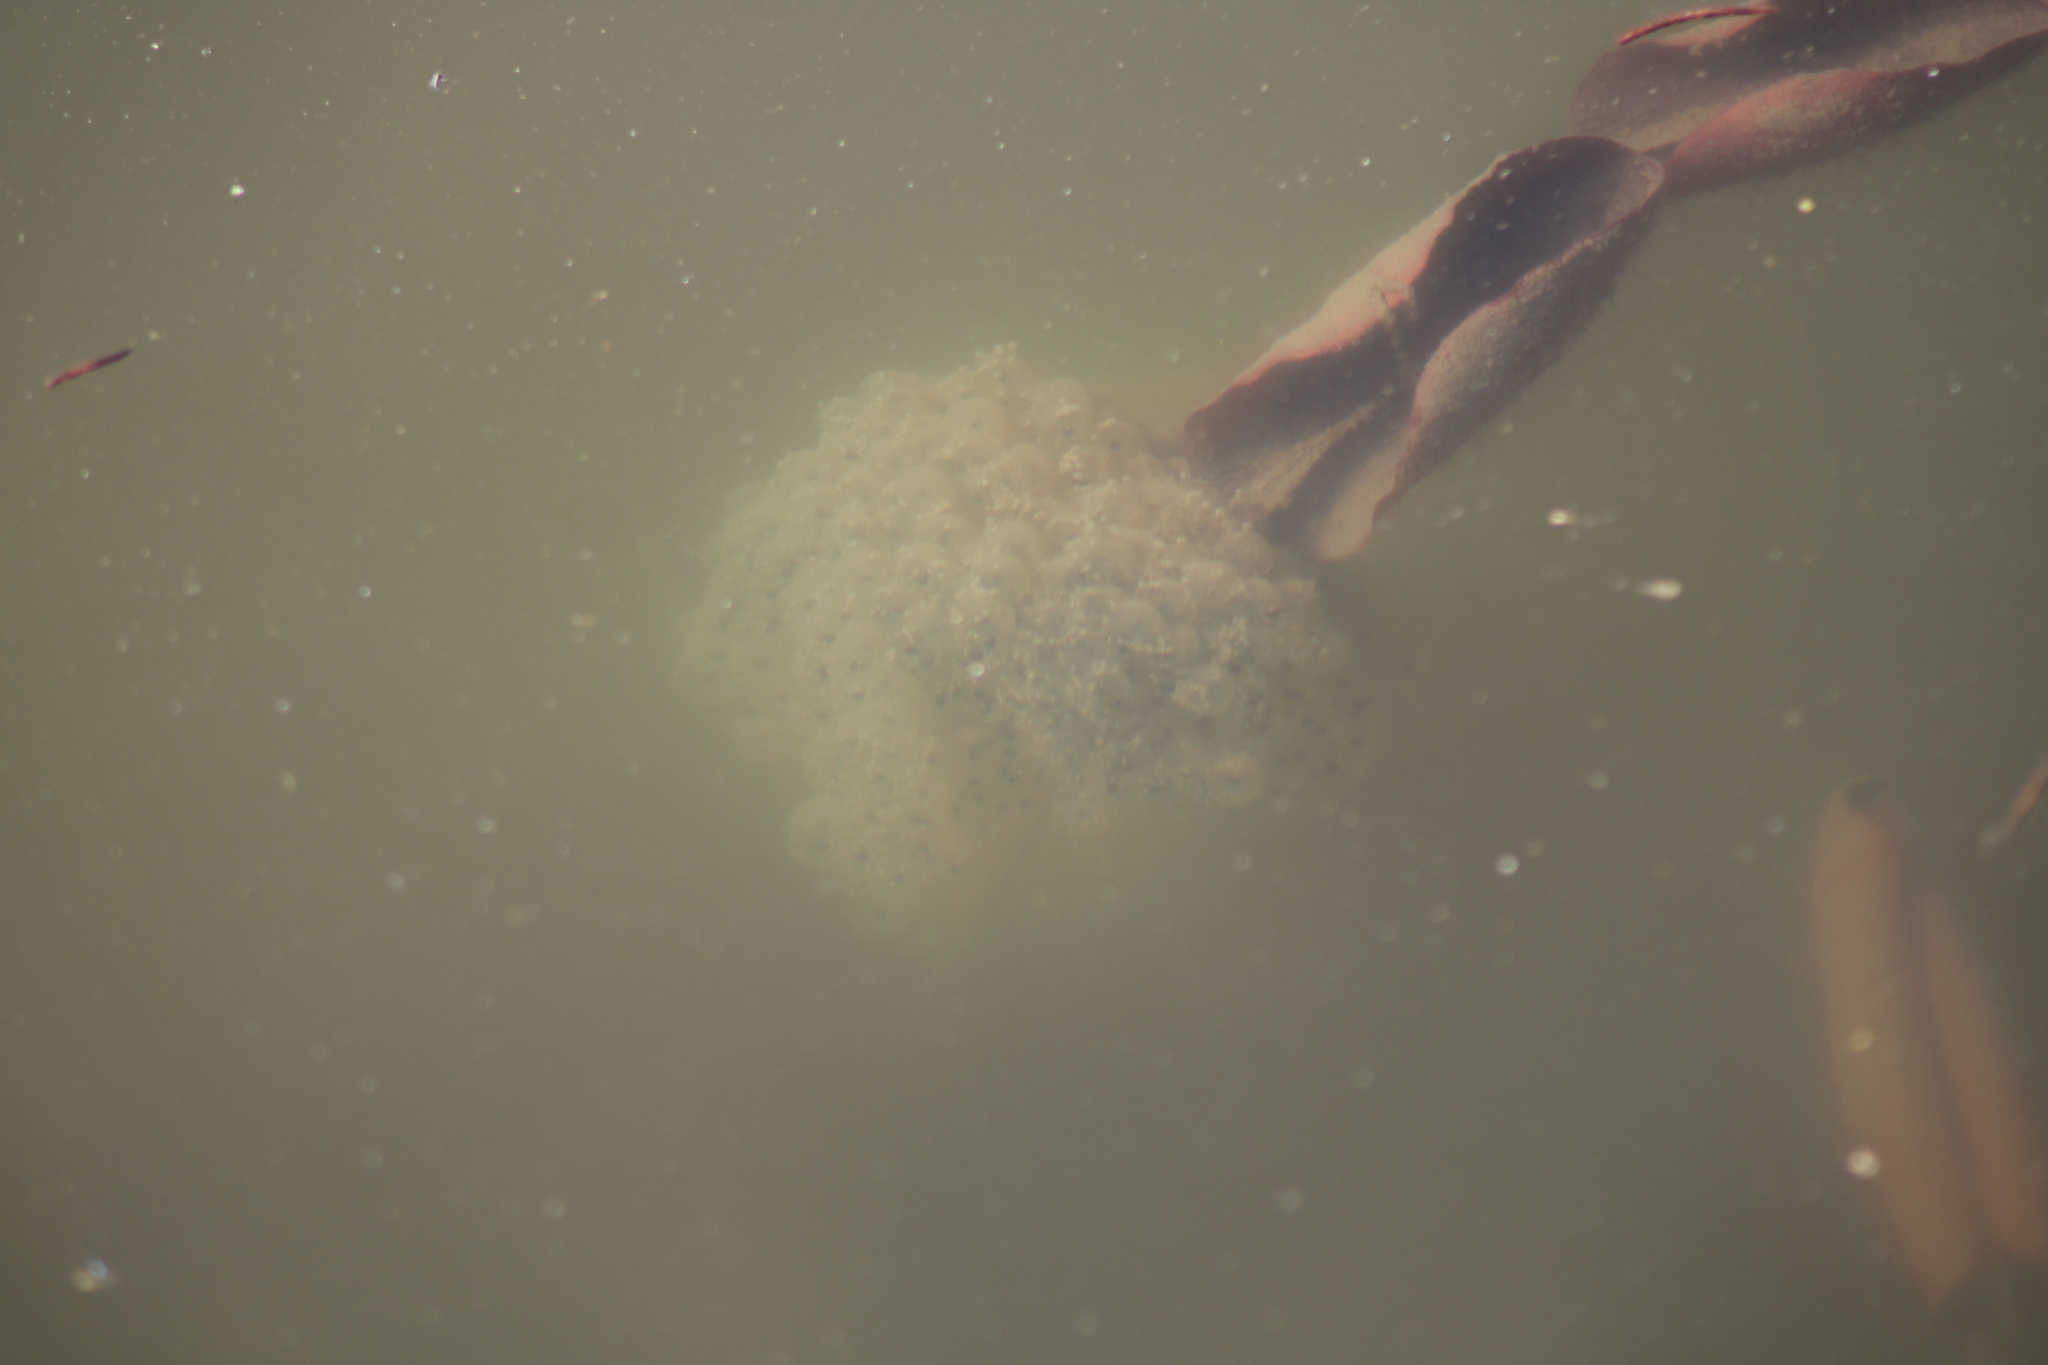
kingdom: Animalia
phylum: Chordata
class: Amphibia
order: Anura
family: Ranidae
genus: Rana
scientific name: Rana dalmatina
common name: Agile frog
